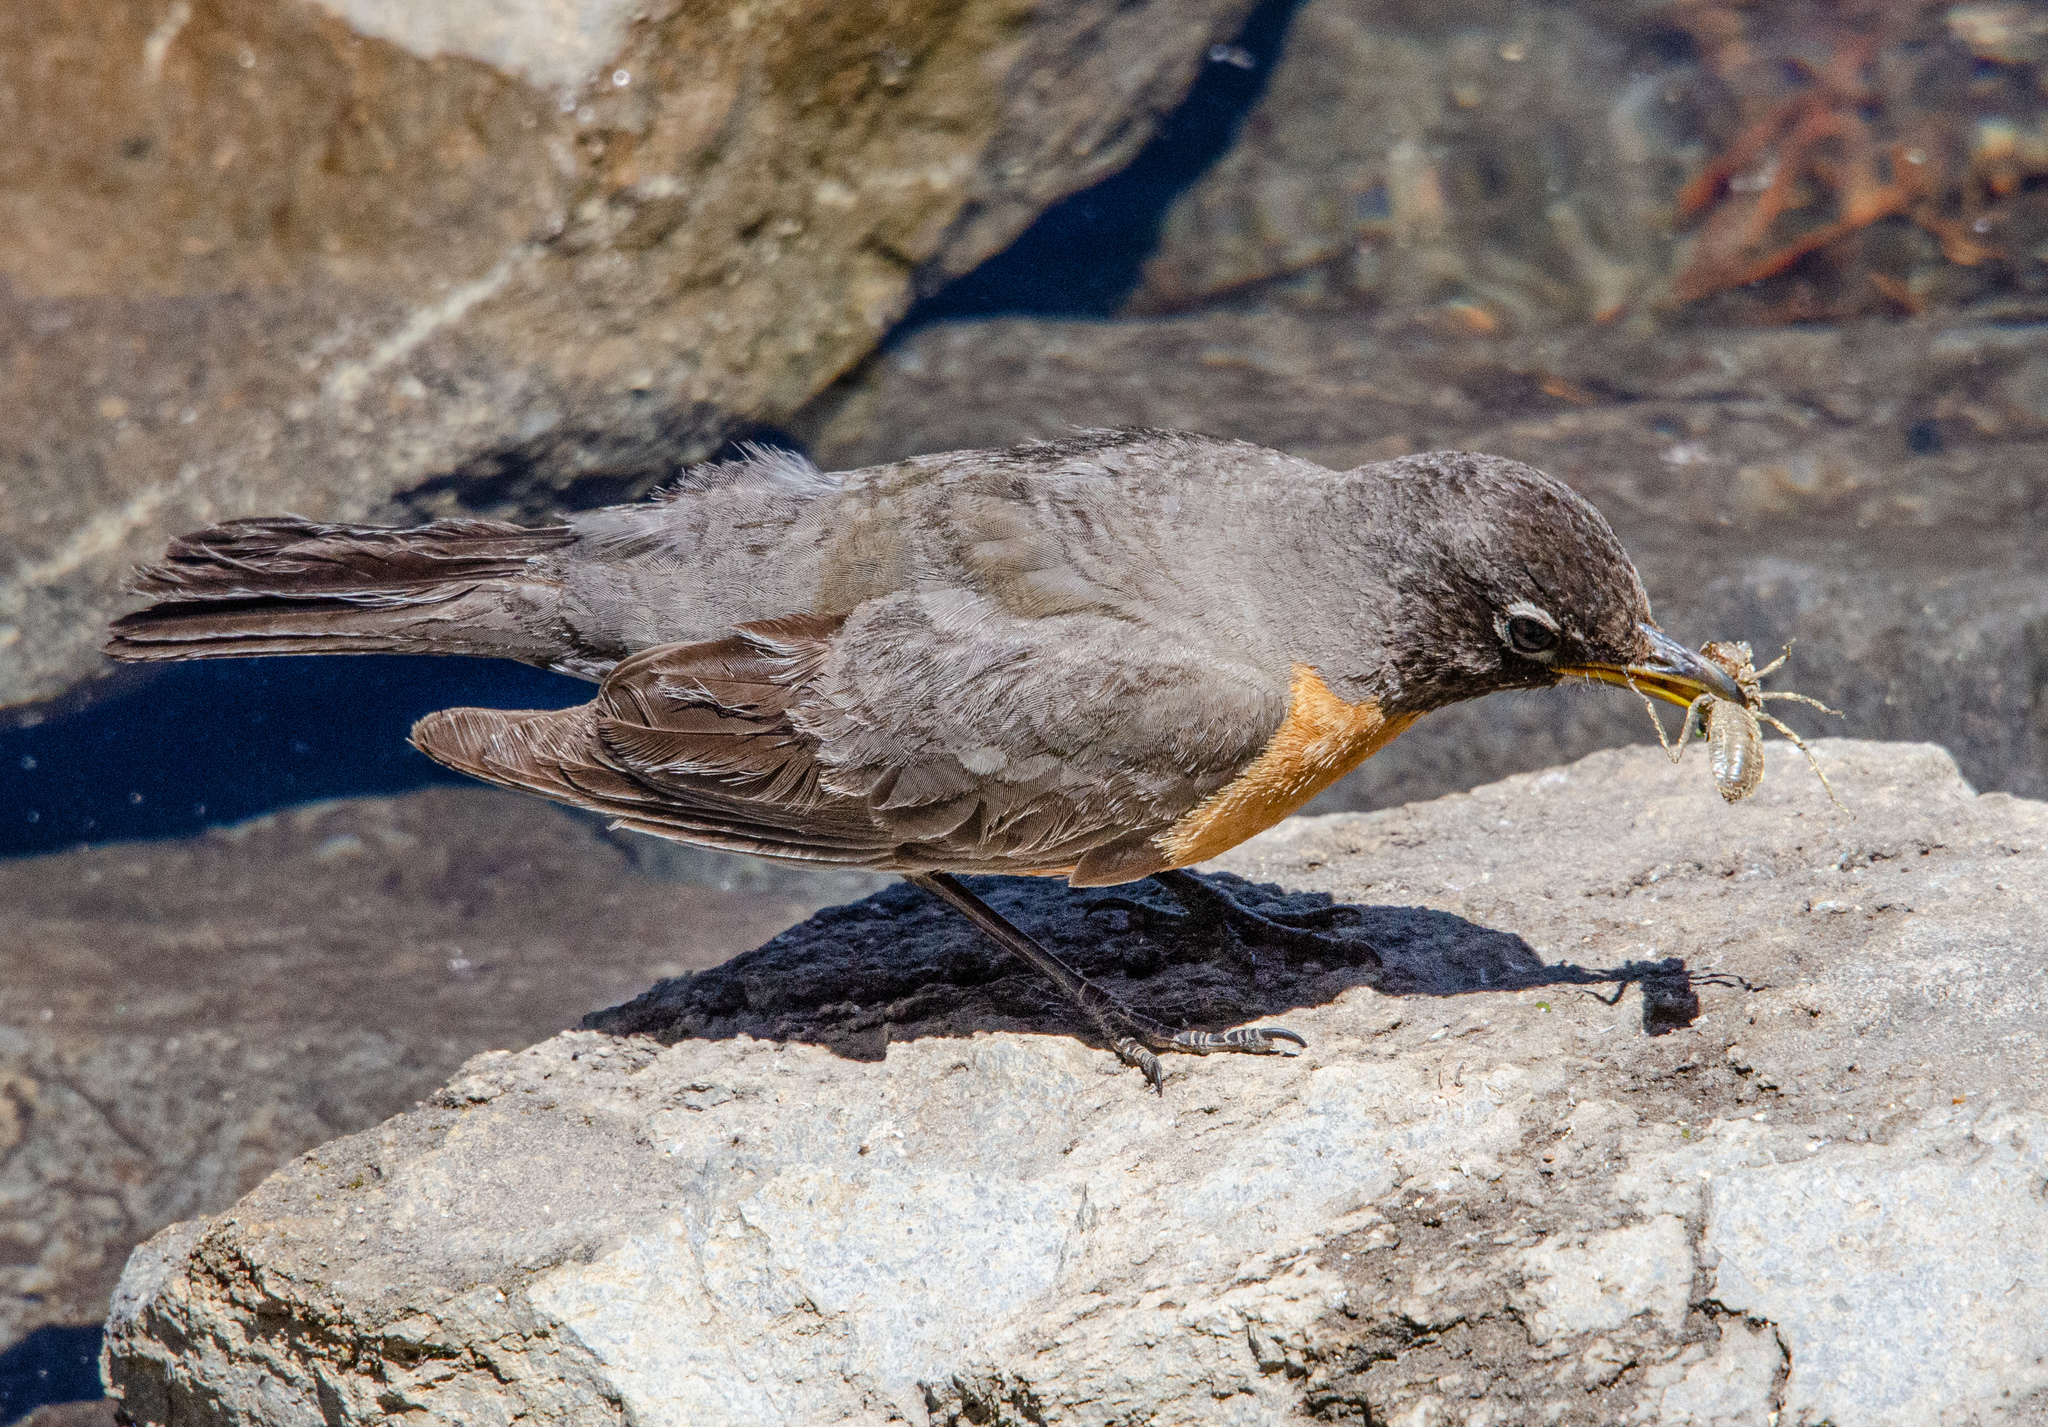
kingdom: Animalia
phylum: Chordata
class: Aves
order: Passeriformes
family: Turdidae
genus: Turdus
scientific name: Turdus migratorius
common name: American robin
